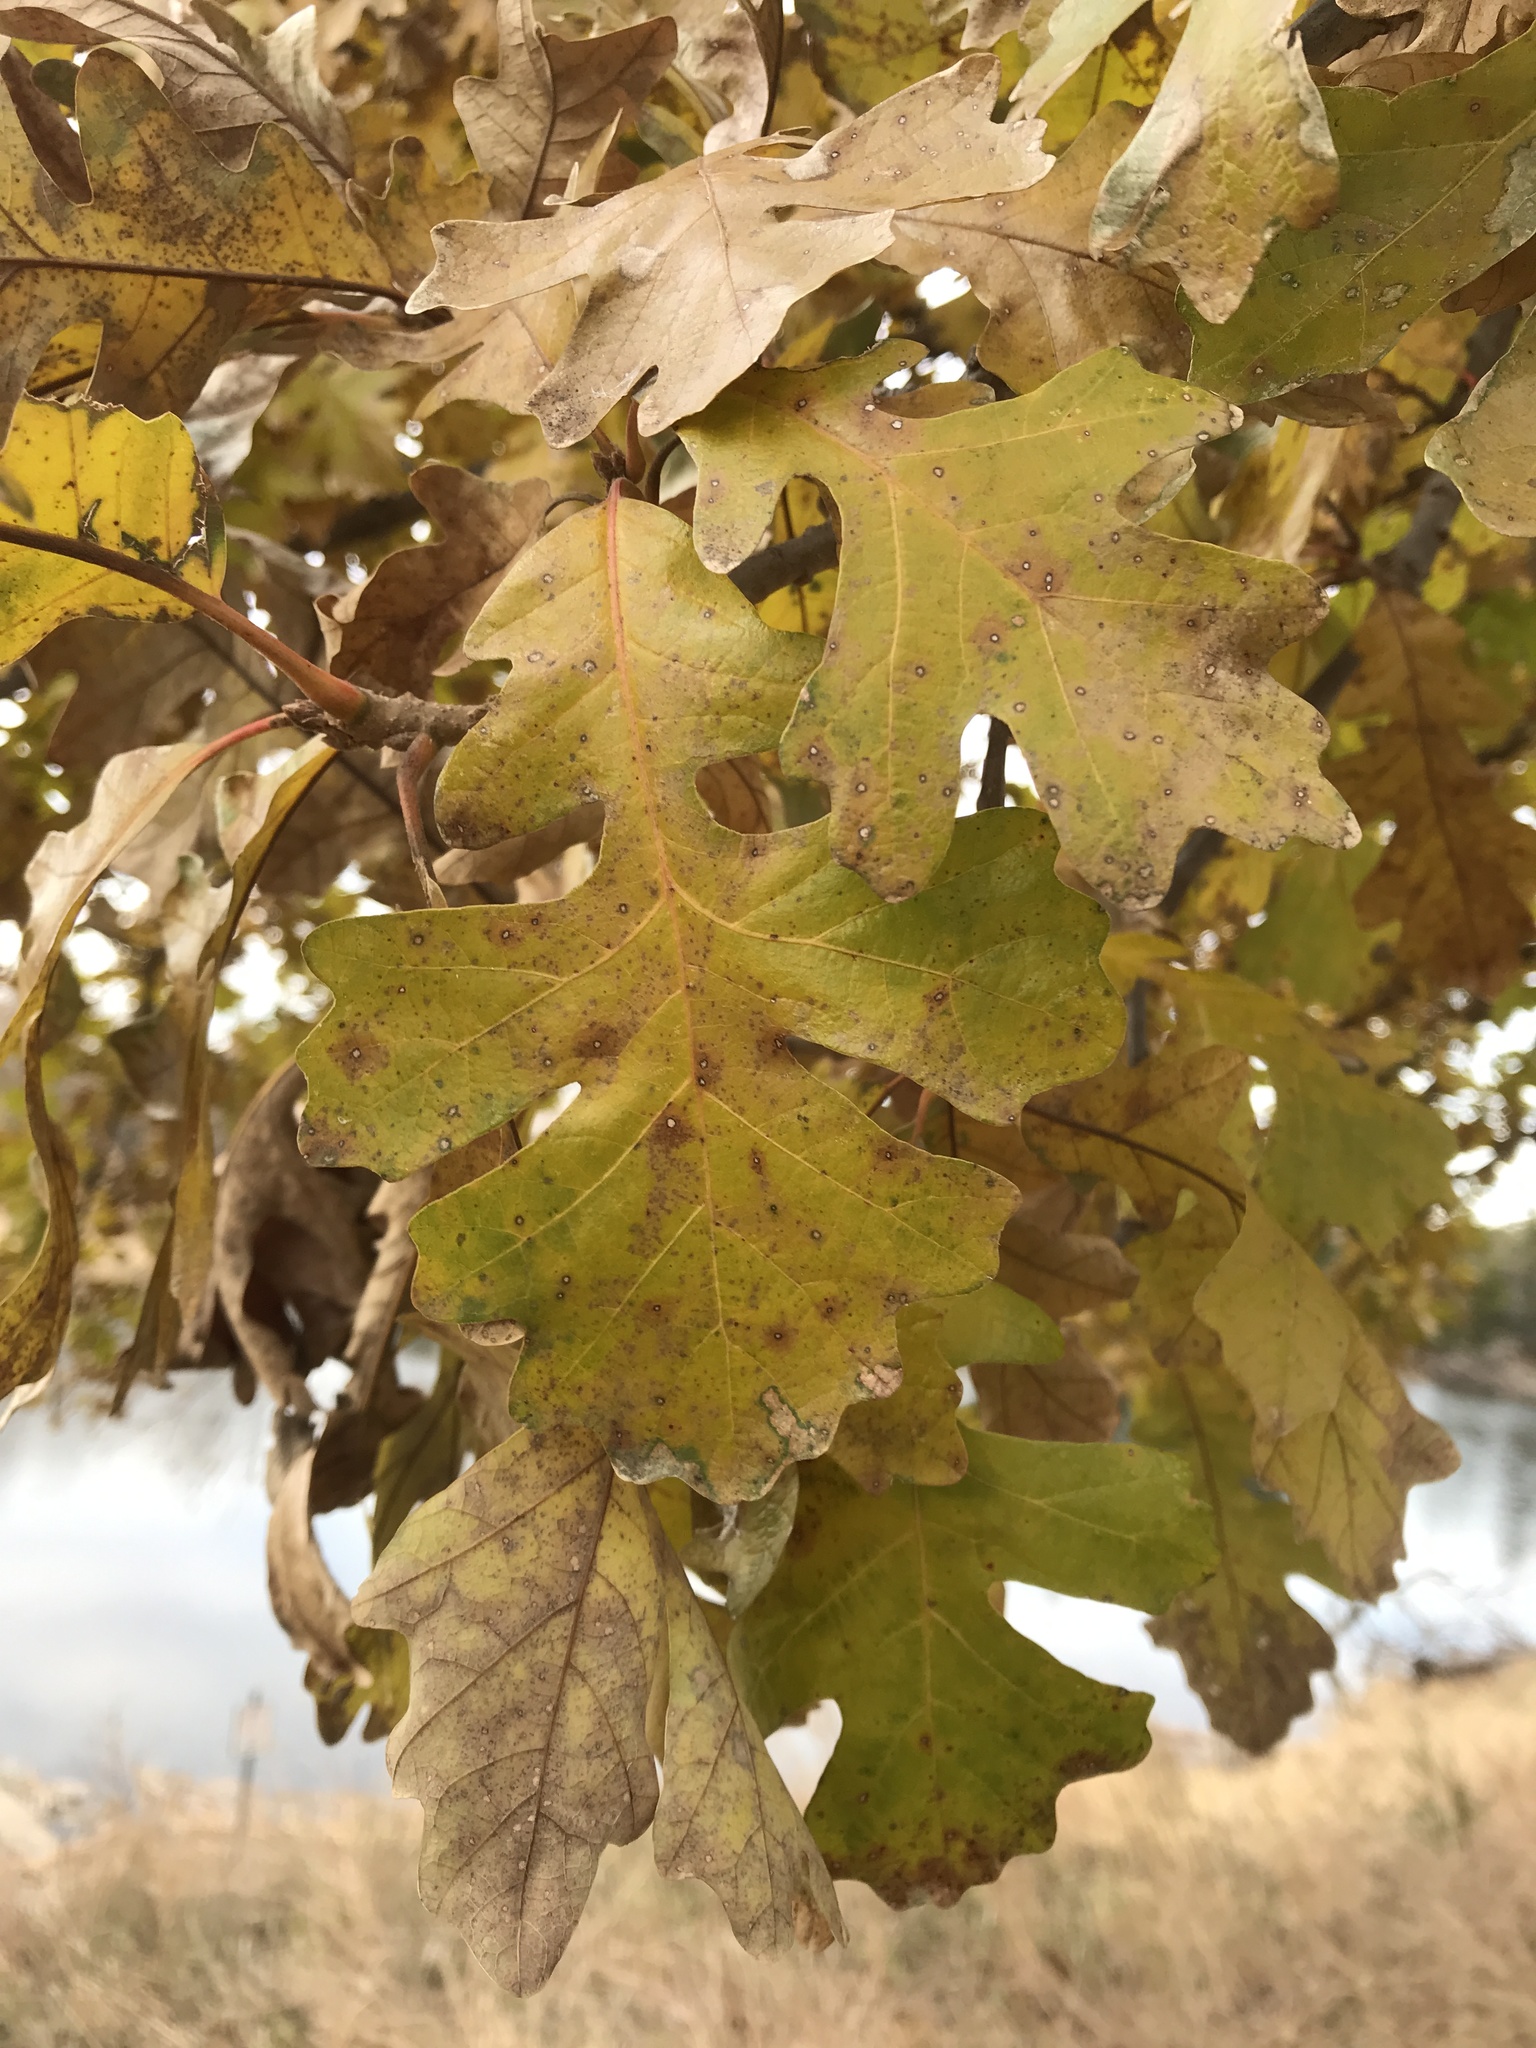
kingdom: Plantae
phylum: Tracheophyta
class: Magnoliopsida
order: Fagales
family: Fagaceae
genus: Quercus
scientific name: Quercus macrocarpa
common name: Bur oak
